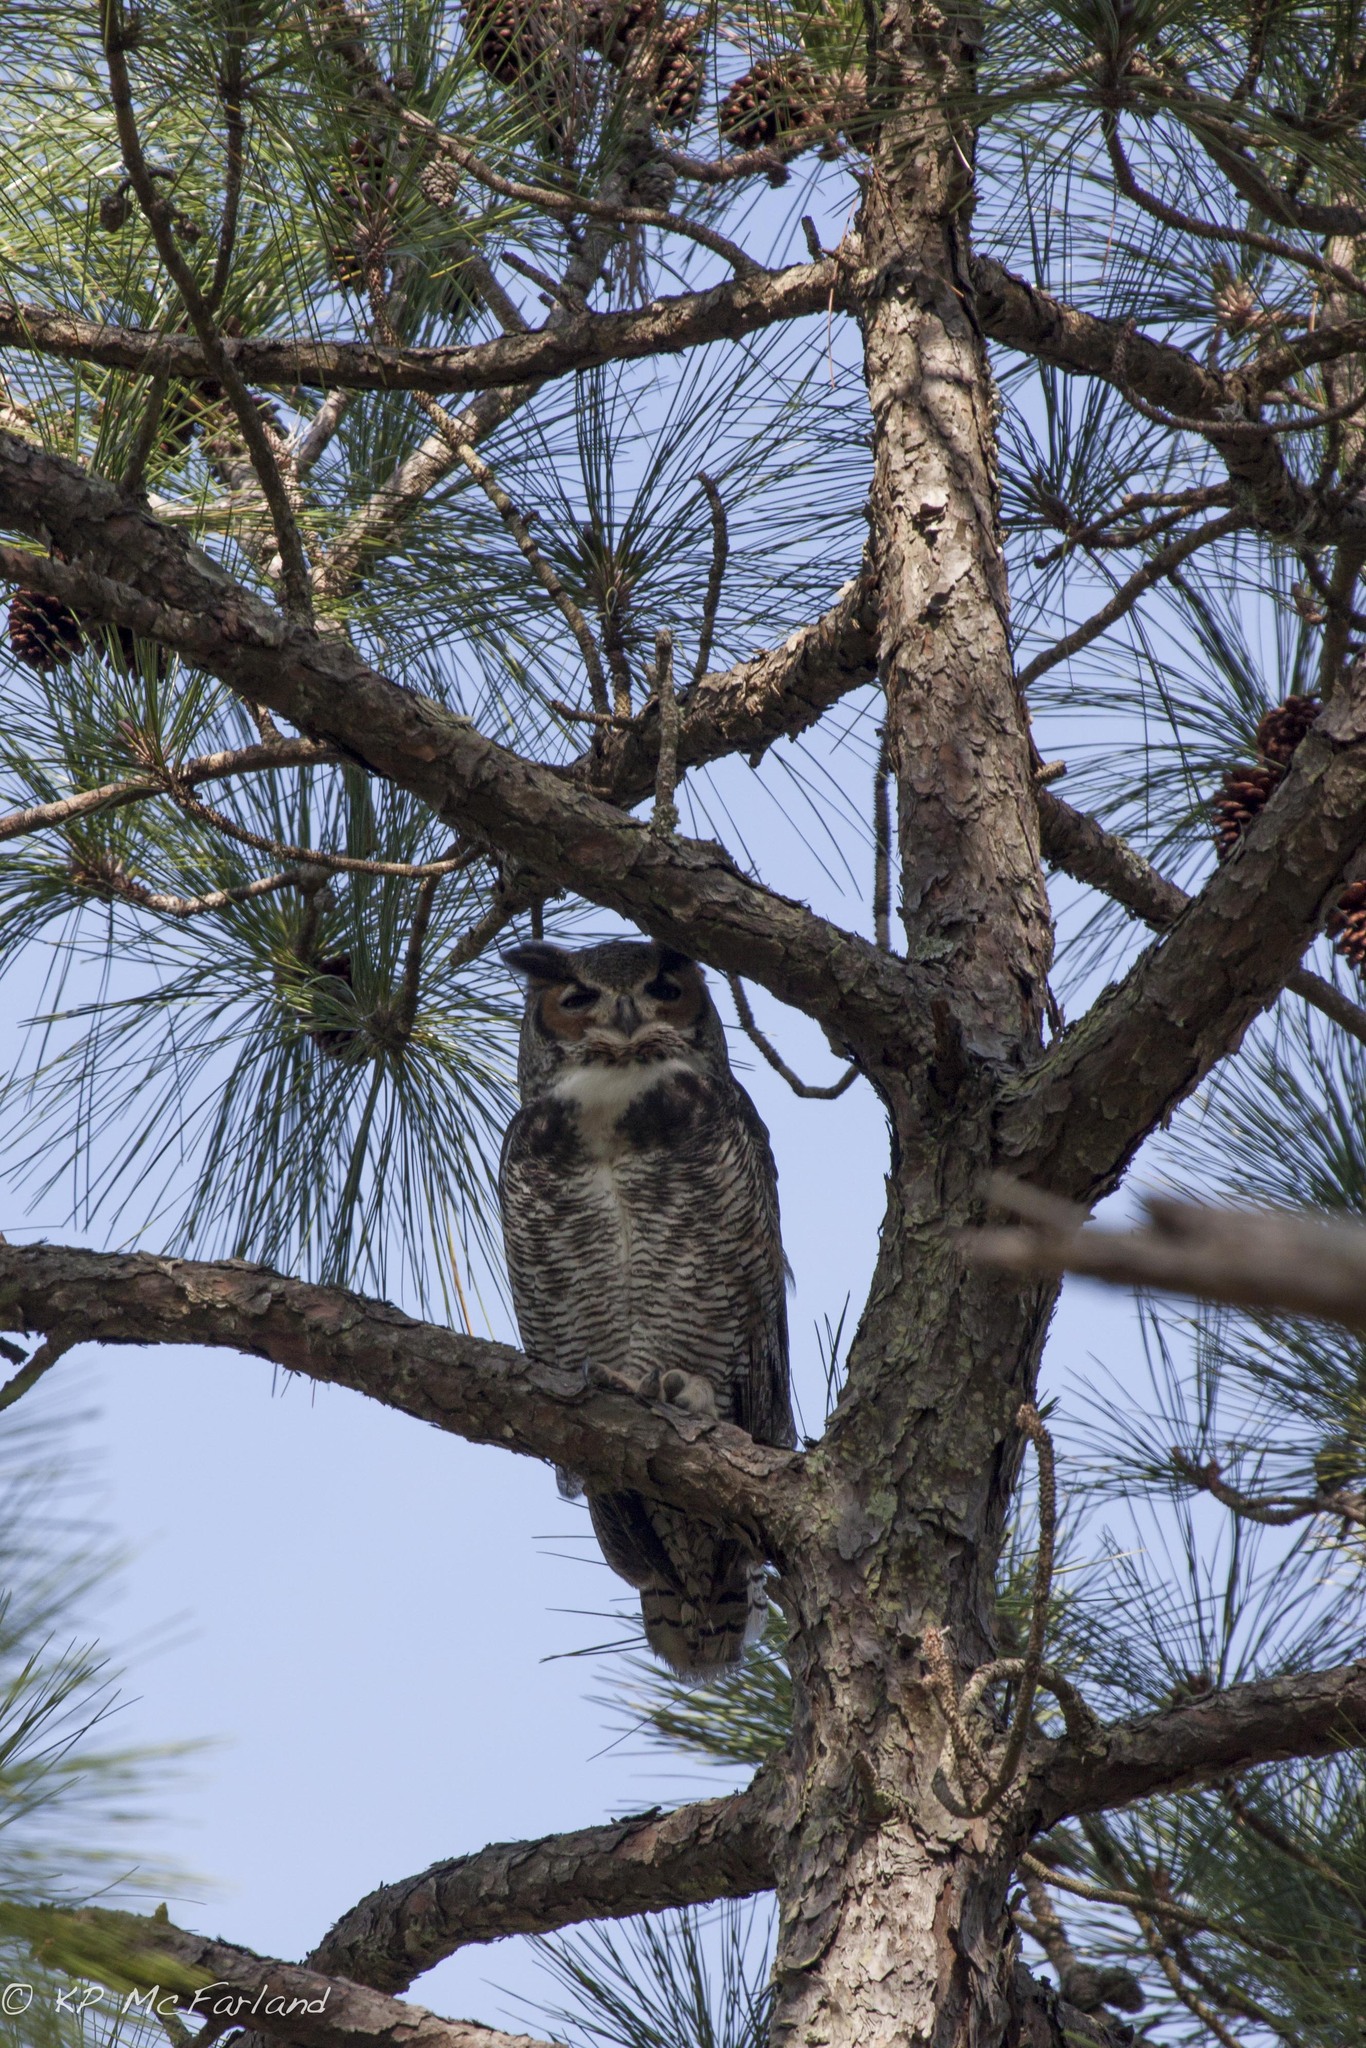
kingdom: Animalia
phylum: Chordata
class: Aves
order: Strigiformes
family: Strigidae
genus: Bubo
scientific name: Bubo virginianus
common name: Great horned owl
